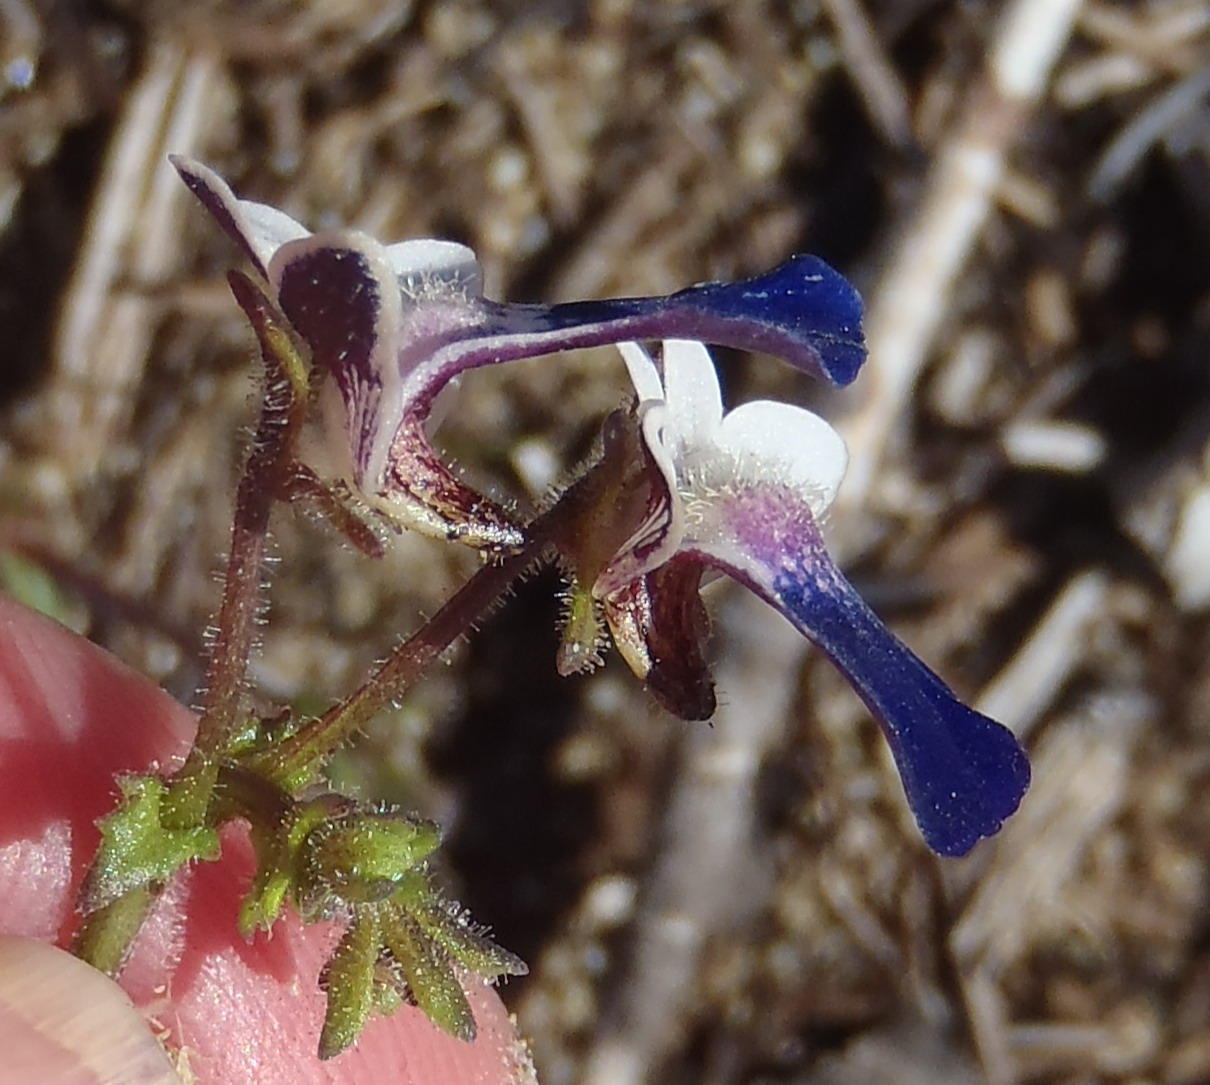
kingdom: Plantae
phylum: Tracheophyta
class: Magnoliopsida
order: Lamiales
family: Scrophulariaceae
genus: Nemesia
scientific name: Nemesia barbata
